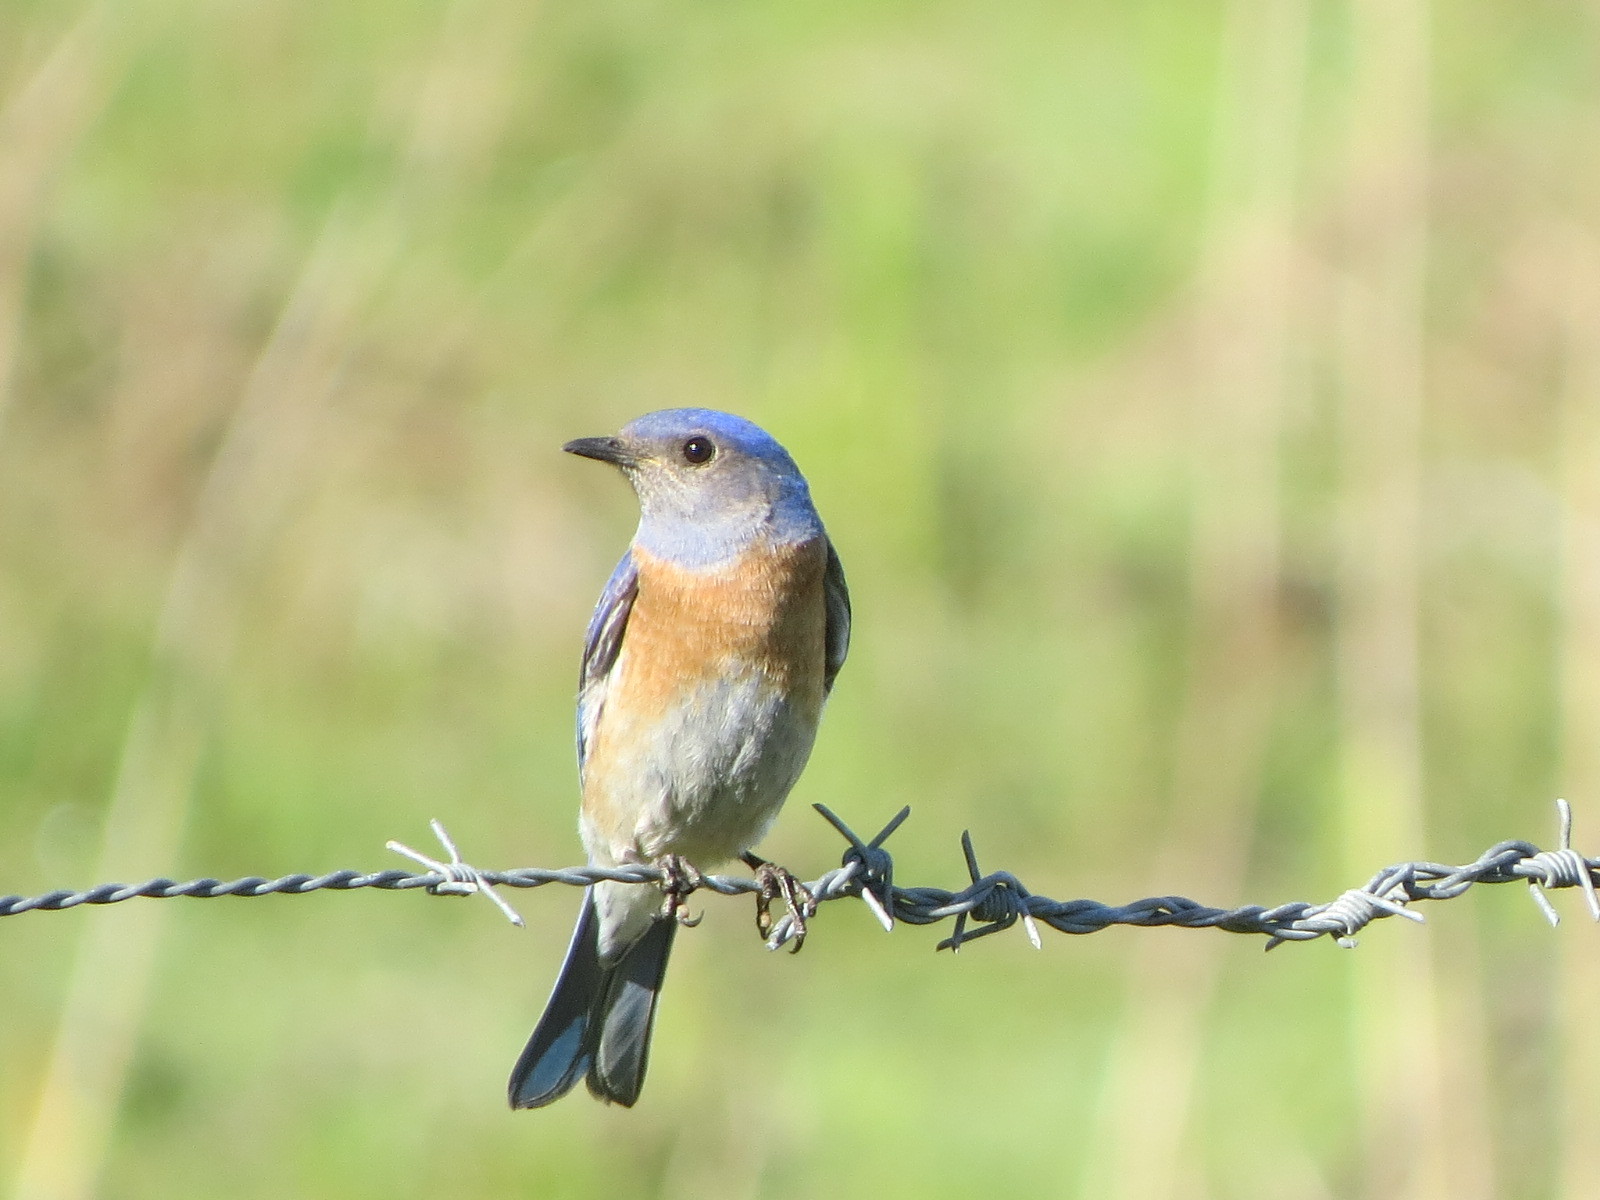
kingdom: Animalia
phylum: Chordata
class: Aves
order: Passeriformes
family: Turdidae
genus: Sialia
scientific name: Sialia mexicana
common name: Western bluebird
